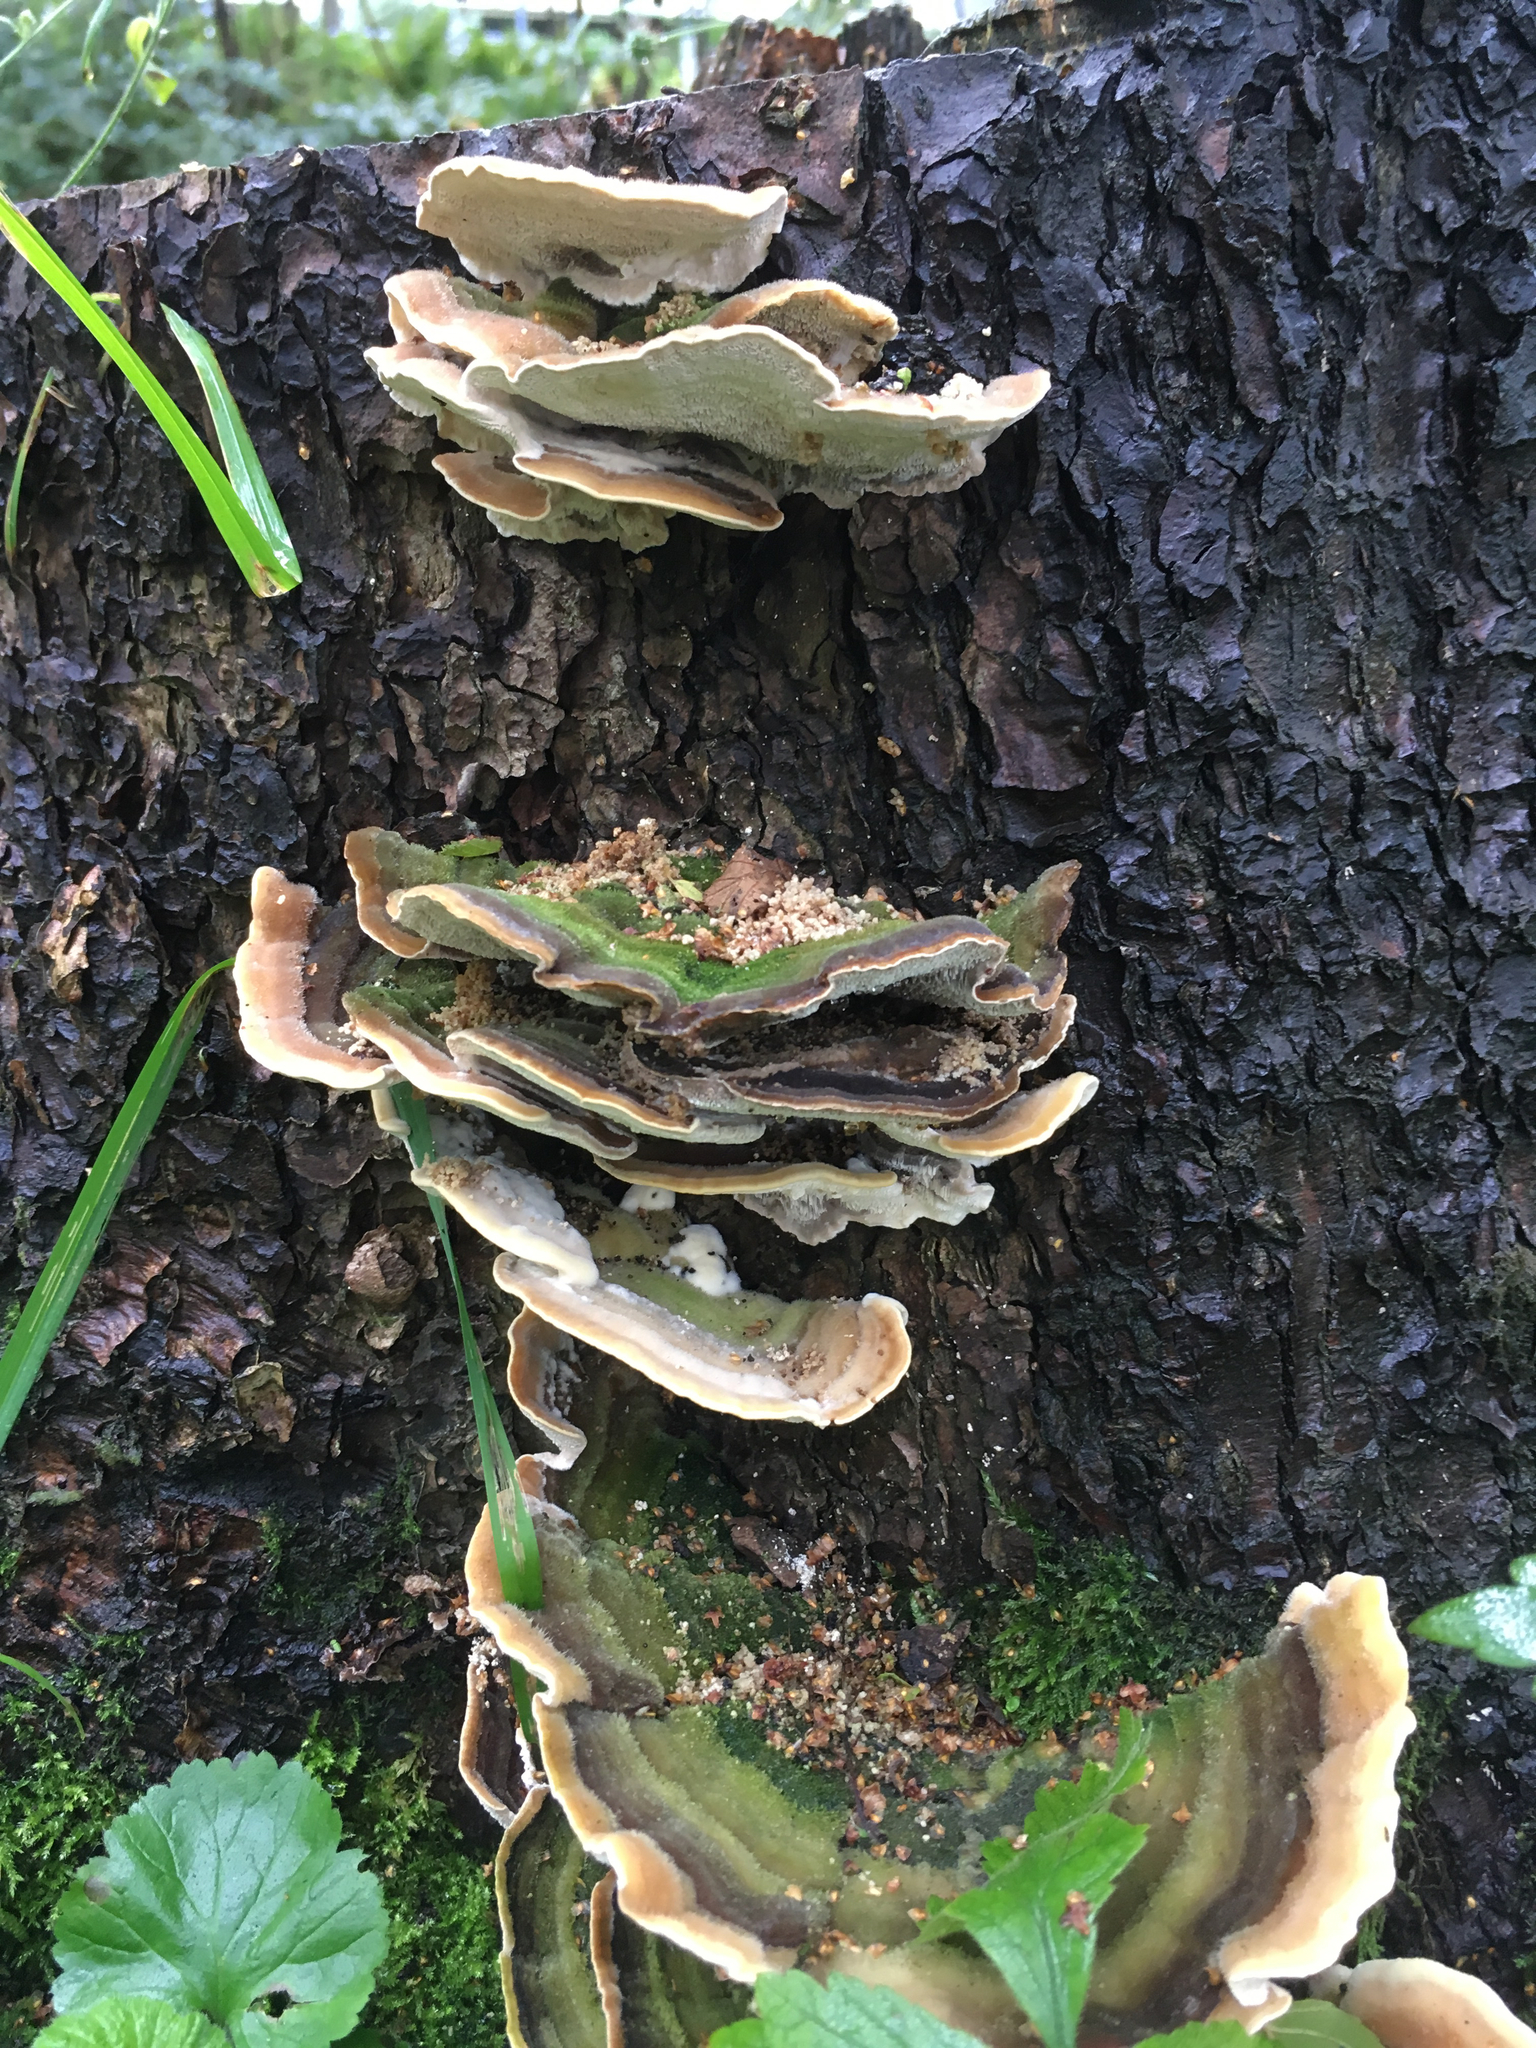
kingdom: Fungi
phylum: Basidiomycota
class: Agaricomycetes
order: Polyporales
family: Cerrenaceae
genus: Cerrena
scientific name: Cerrena unicolor
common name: Mossy maze polypore
